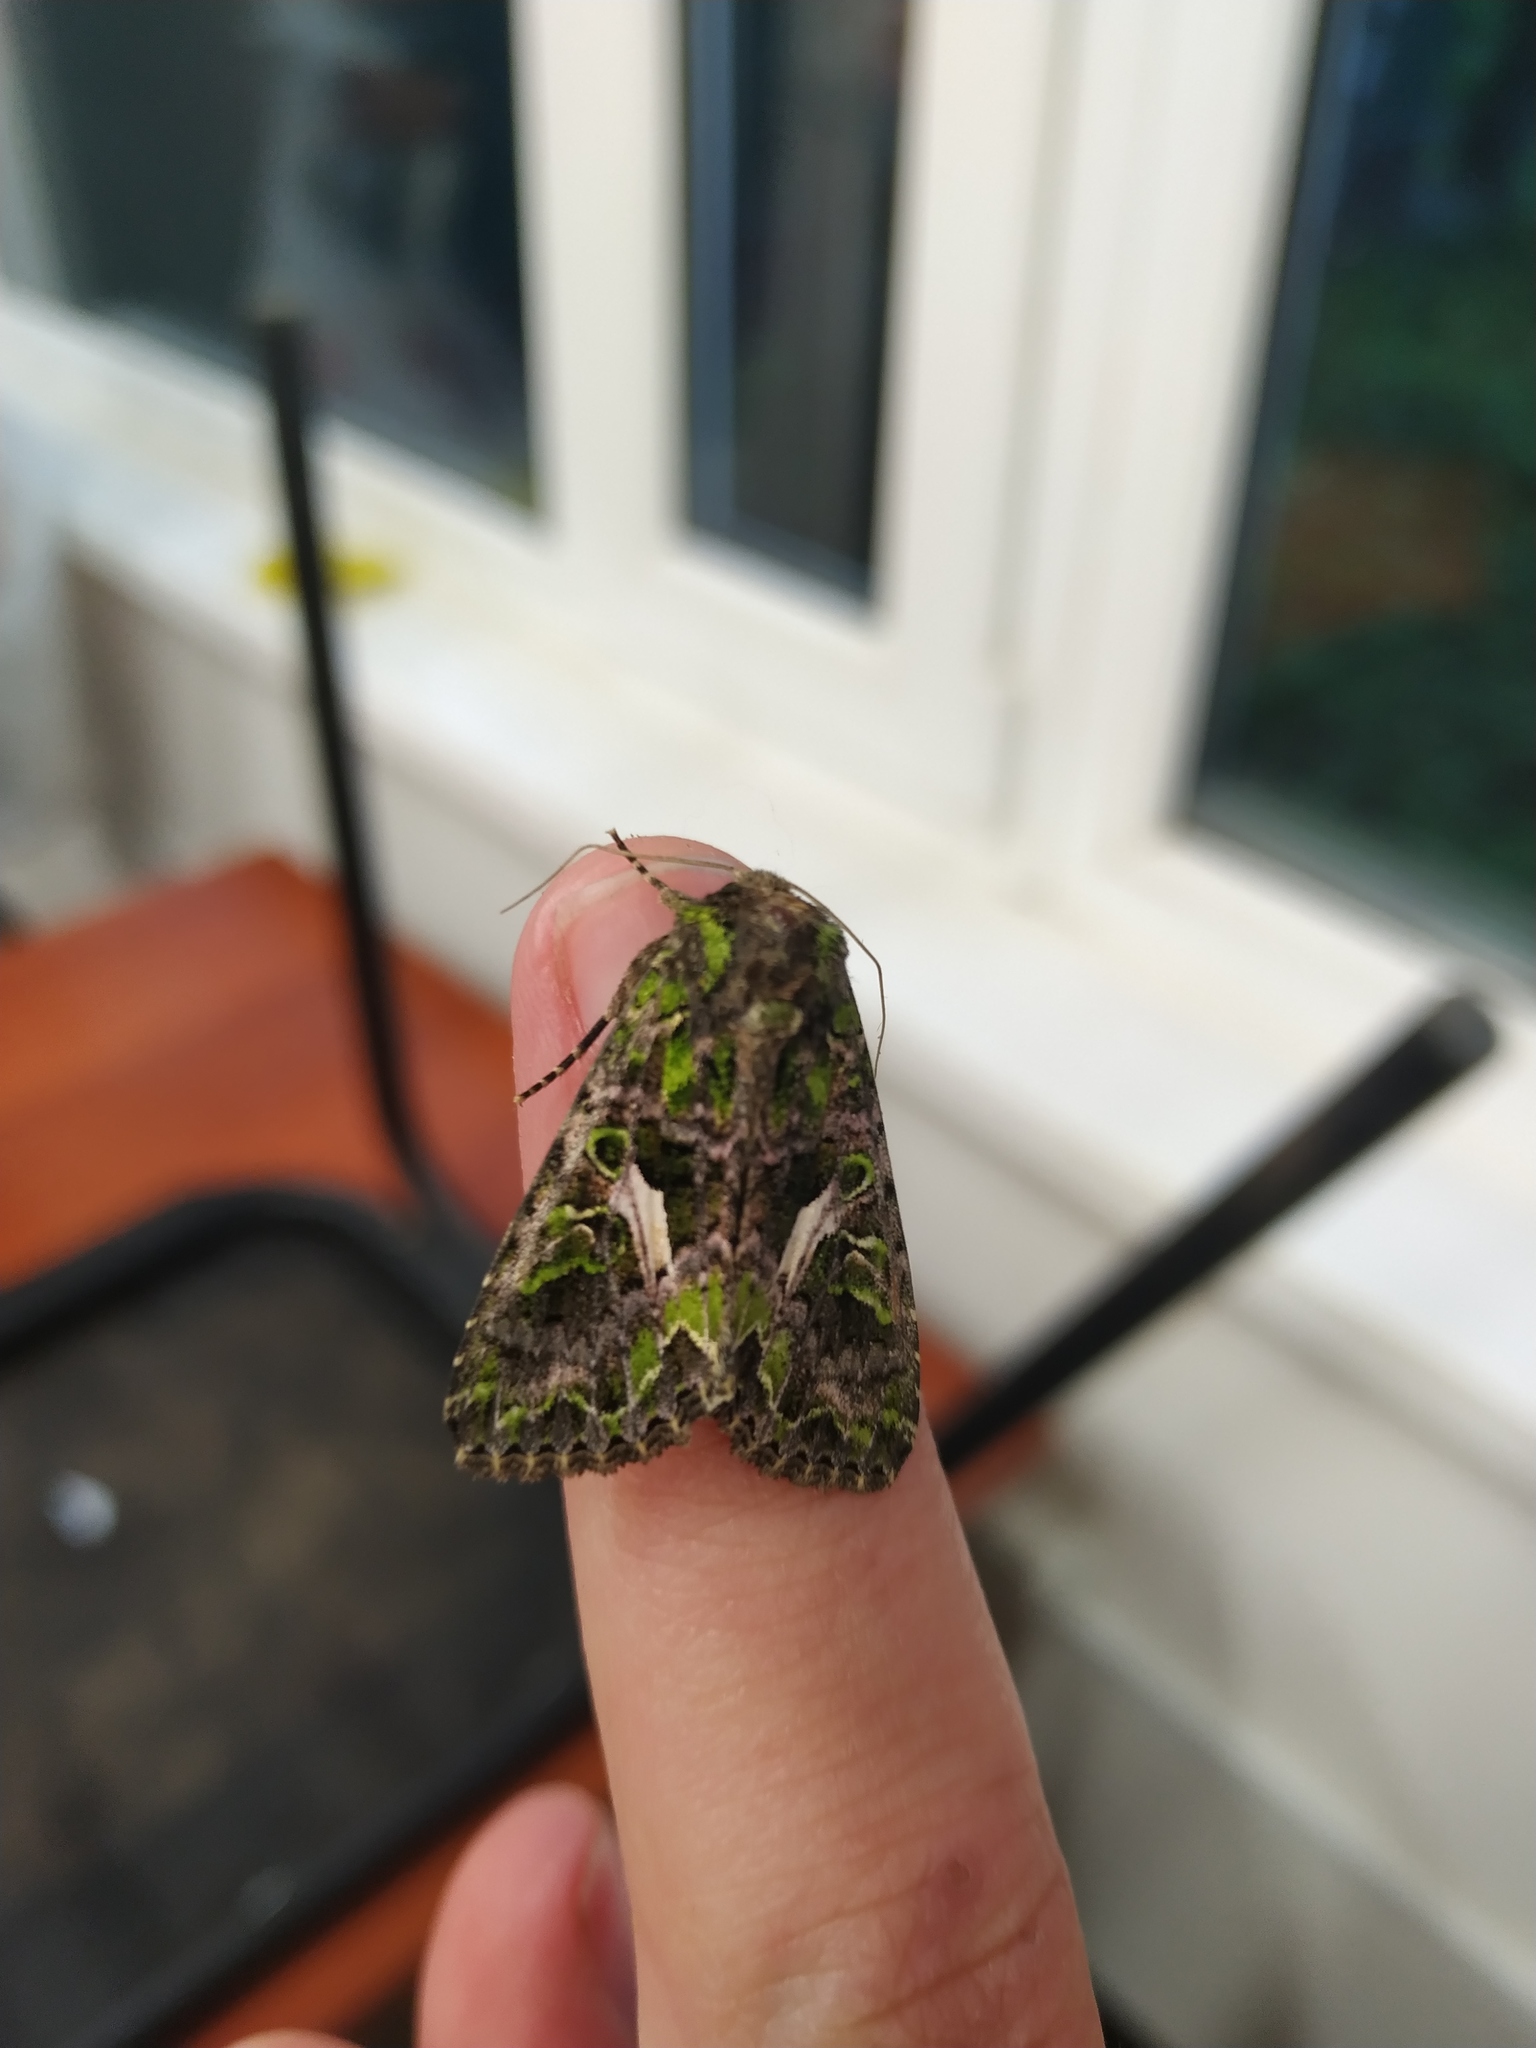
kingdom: Animalia
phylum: Arthropoda
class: Insecta
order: Lepidoptera
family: Noctuidae
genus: Trachea
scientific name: Trachea atriplicis
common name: Orache moth
